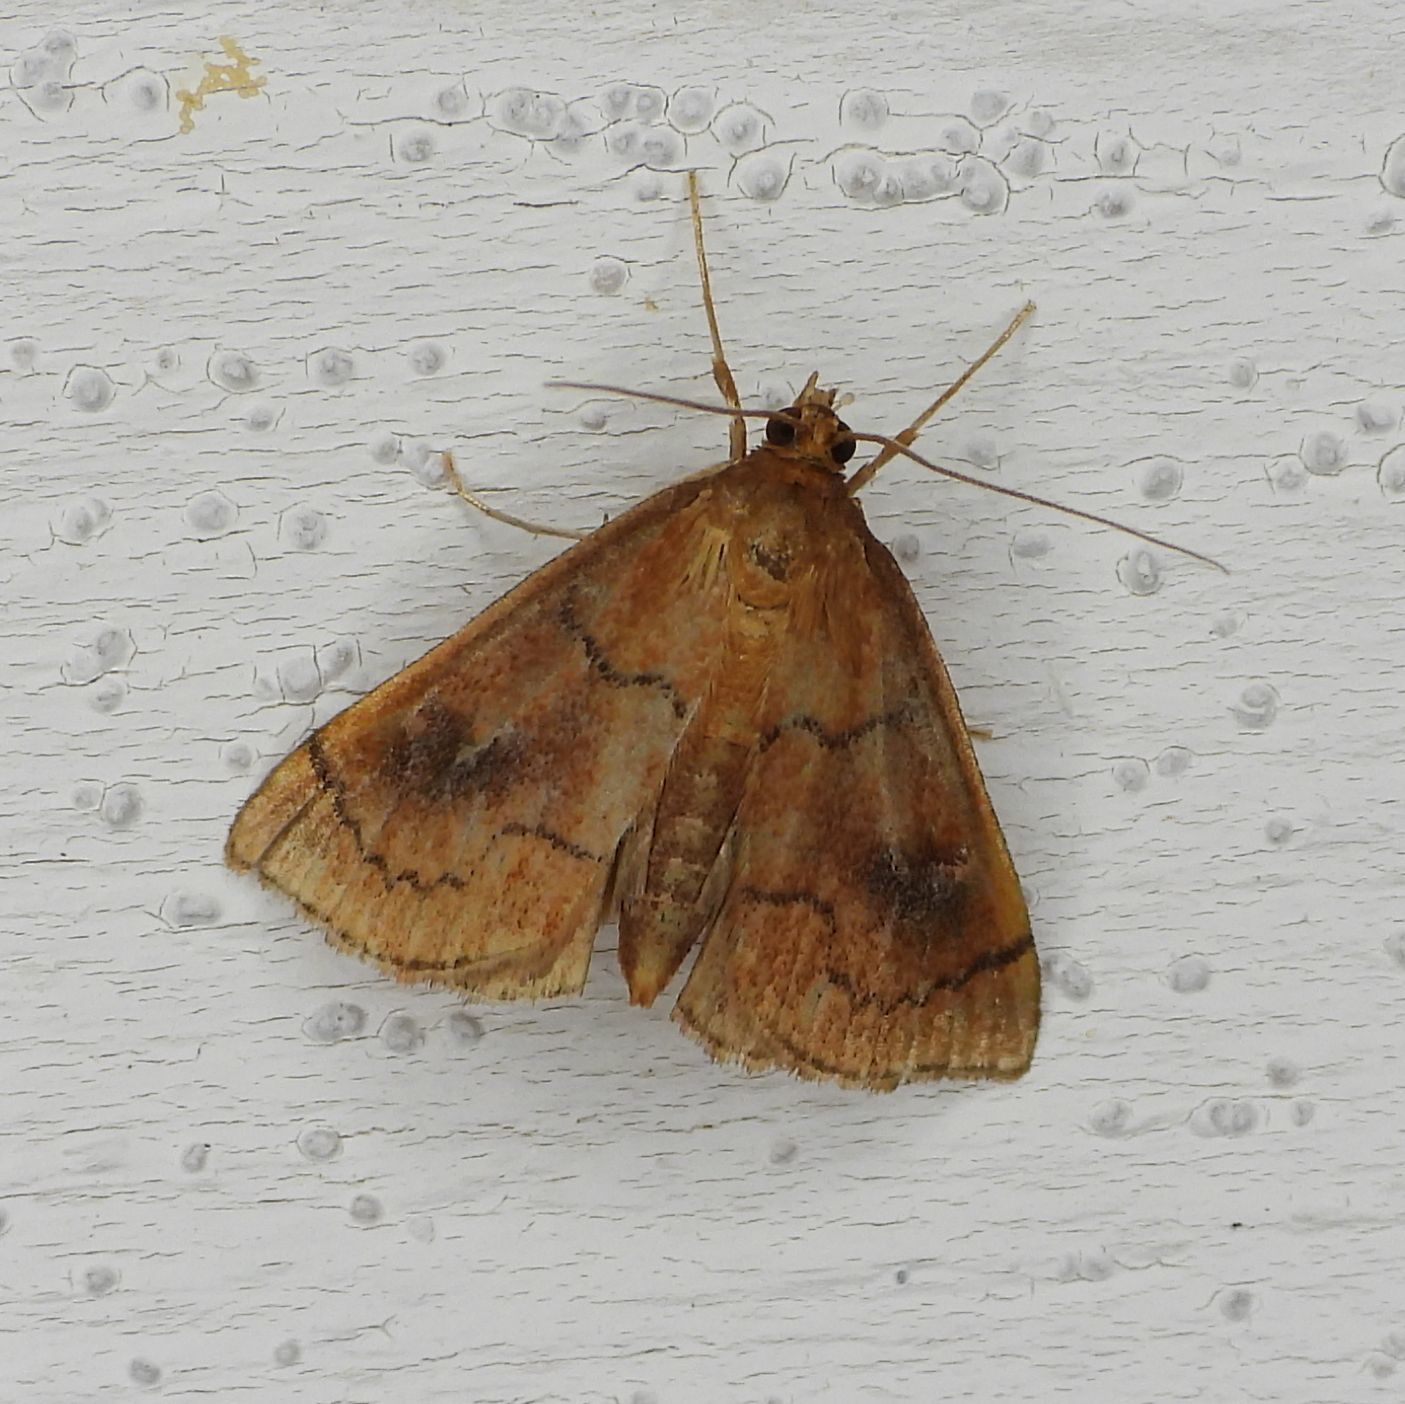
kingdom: Animalia
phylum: Arthropoda
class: Insecta
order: Lepidoptera
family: Crambidae
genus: Fumibotys
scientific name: Fumibotys fumalis
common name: Mint root borer moth
